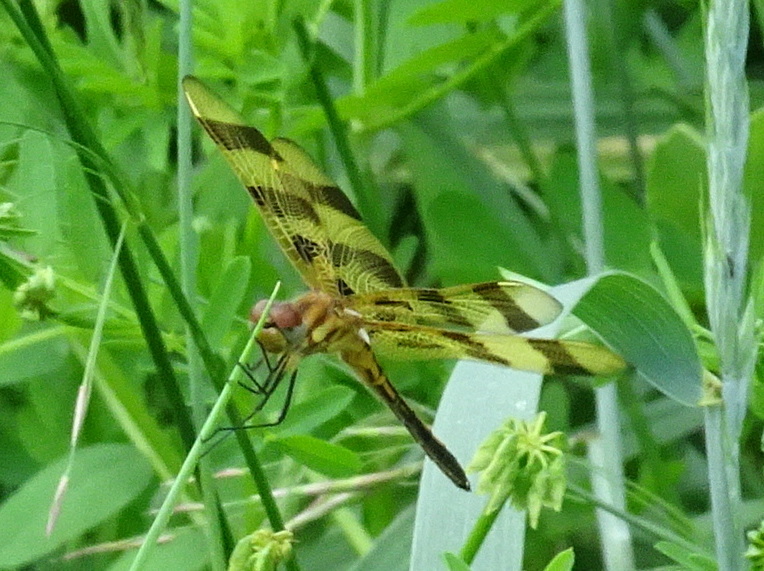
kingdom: Animalia
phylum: Arthropoda
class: Insecta
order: Odonata
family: Libellulidae
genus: Celithemis
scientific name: Celithemis eponina
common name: Halloween pennant
